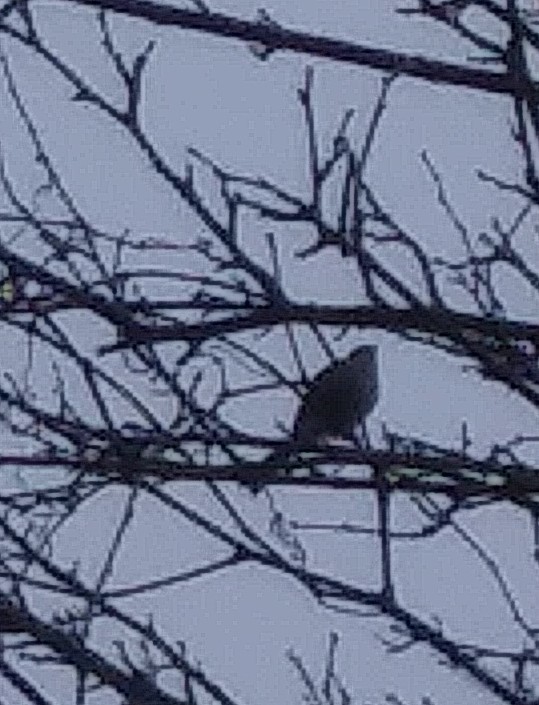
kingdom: Animalia
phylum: Chordata
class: Aves
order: Passeriformes
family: Icteridae
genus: Agelaius
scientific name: Agelaius phoeniceus
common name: Red-winged blackbird
